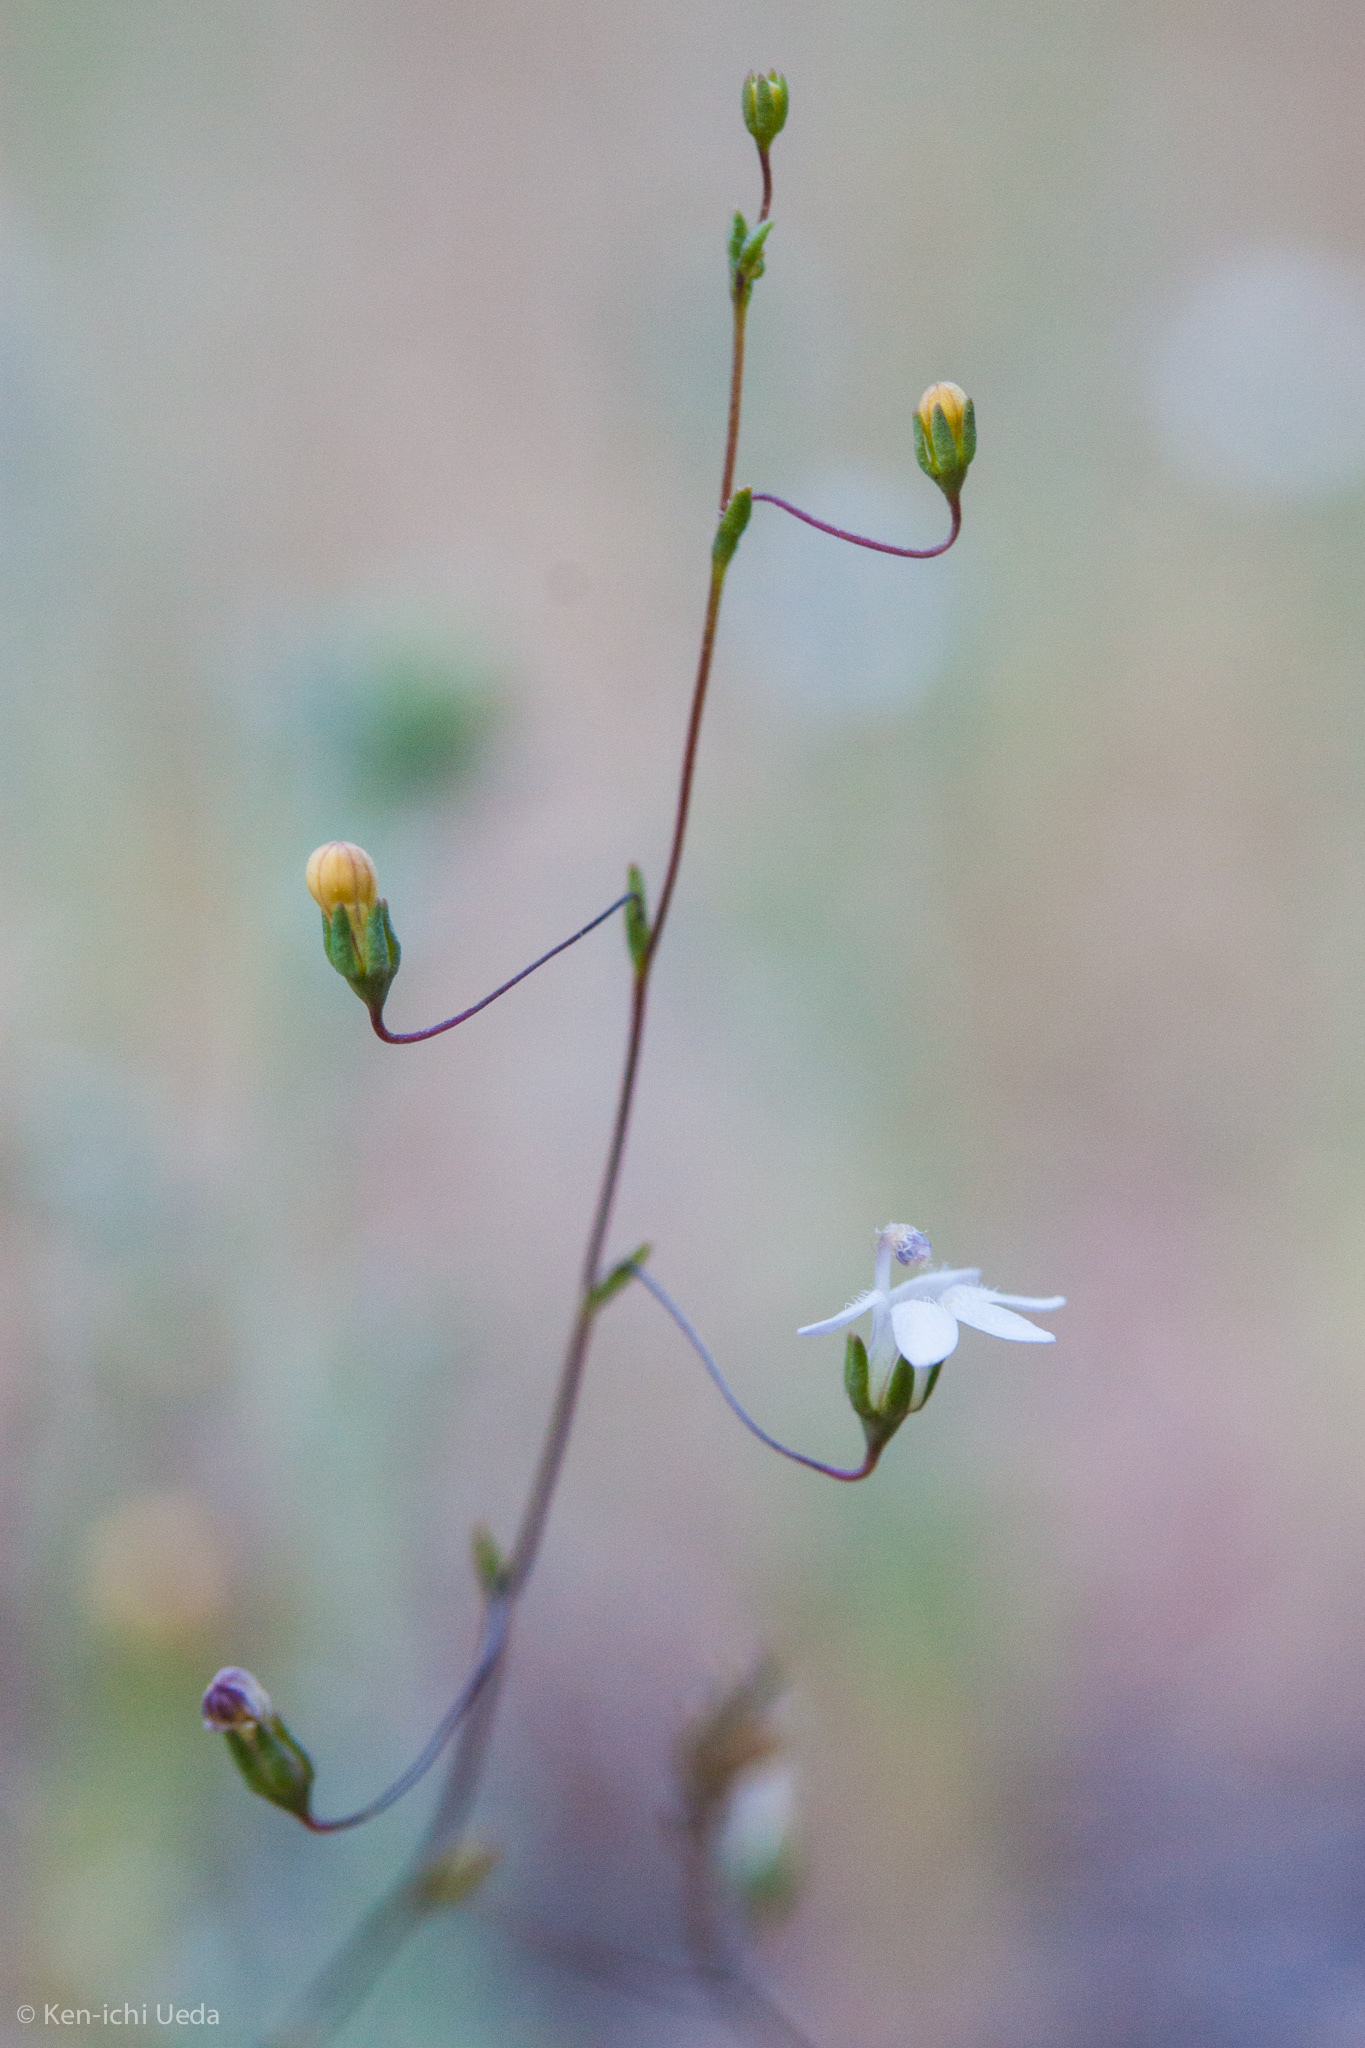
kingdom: Plantae
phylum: Tracheophyta
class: Magnoliopsida
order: Asterales
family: Campanulaceae
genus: Nemacladus
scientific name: Nemacladus secundiflorus
